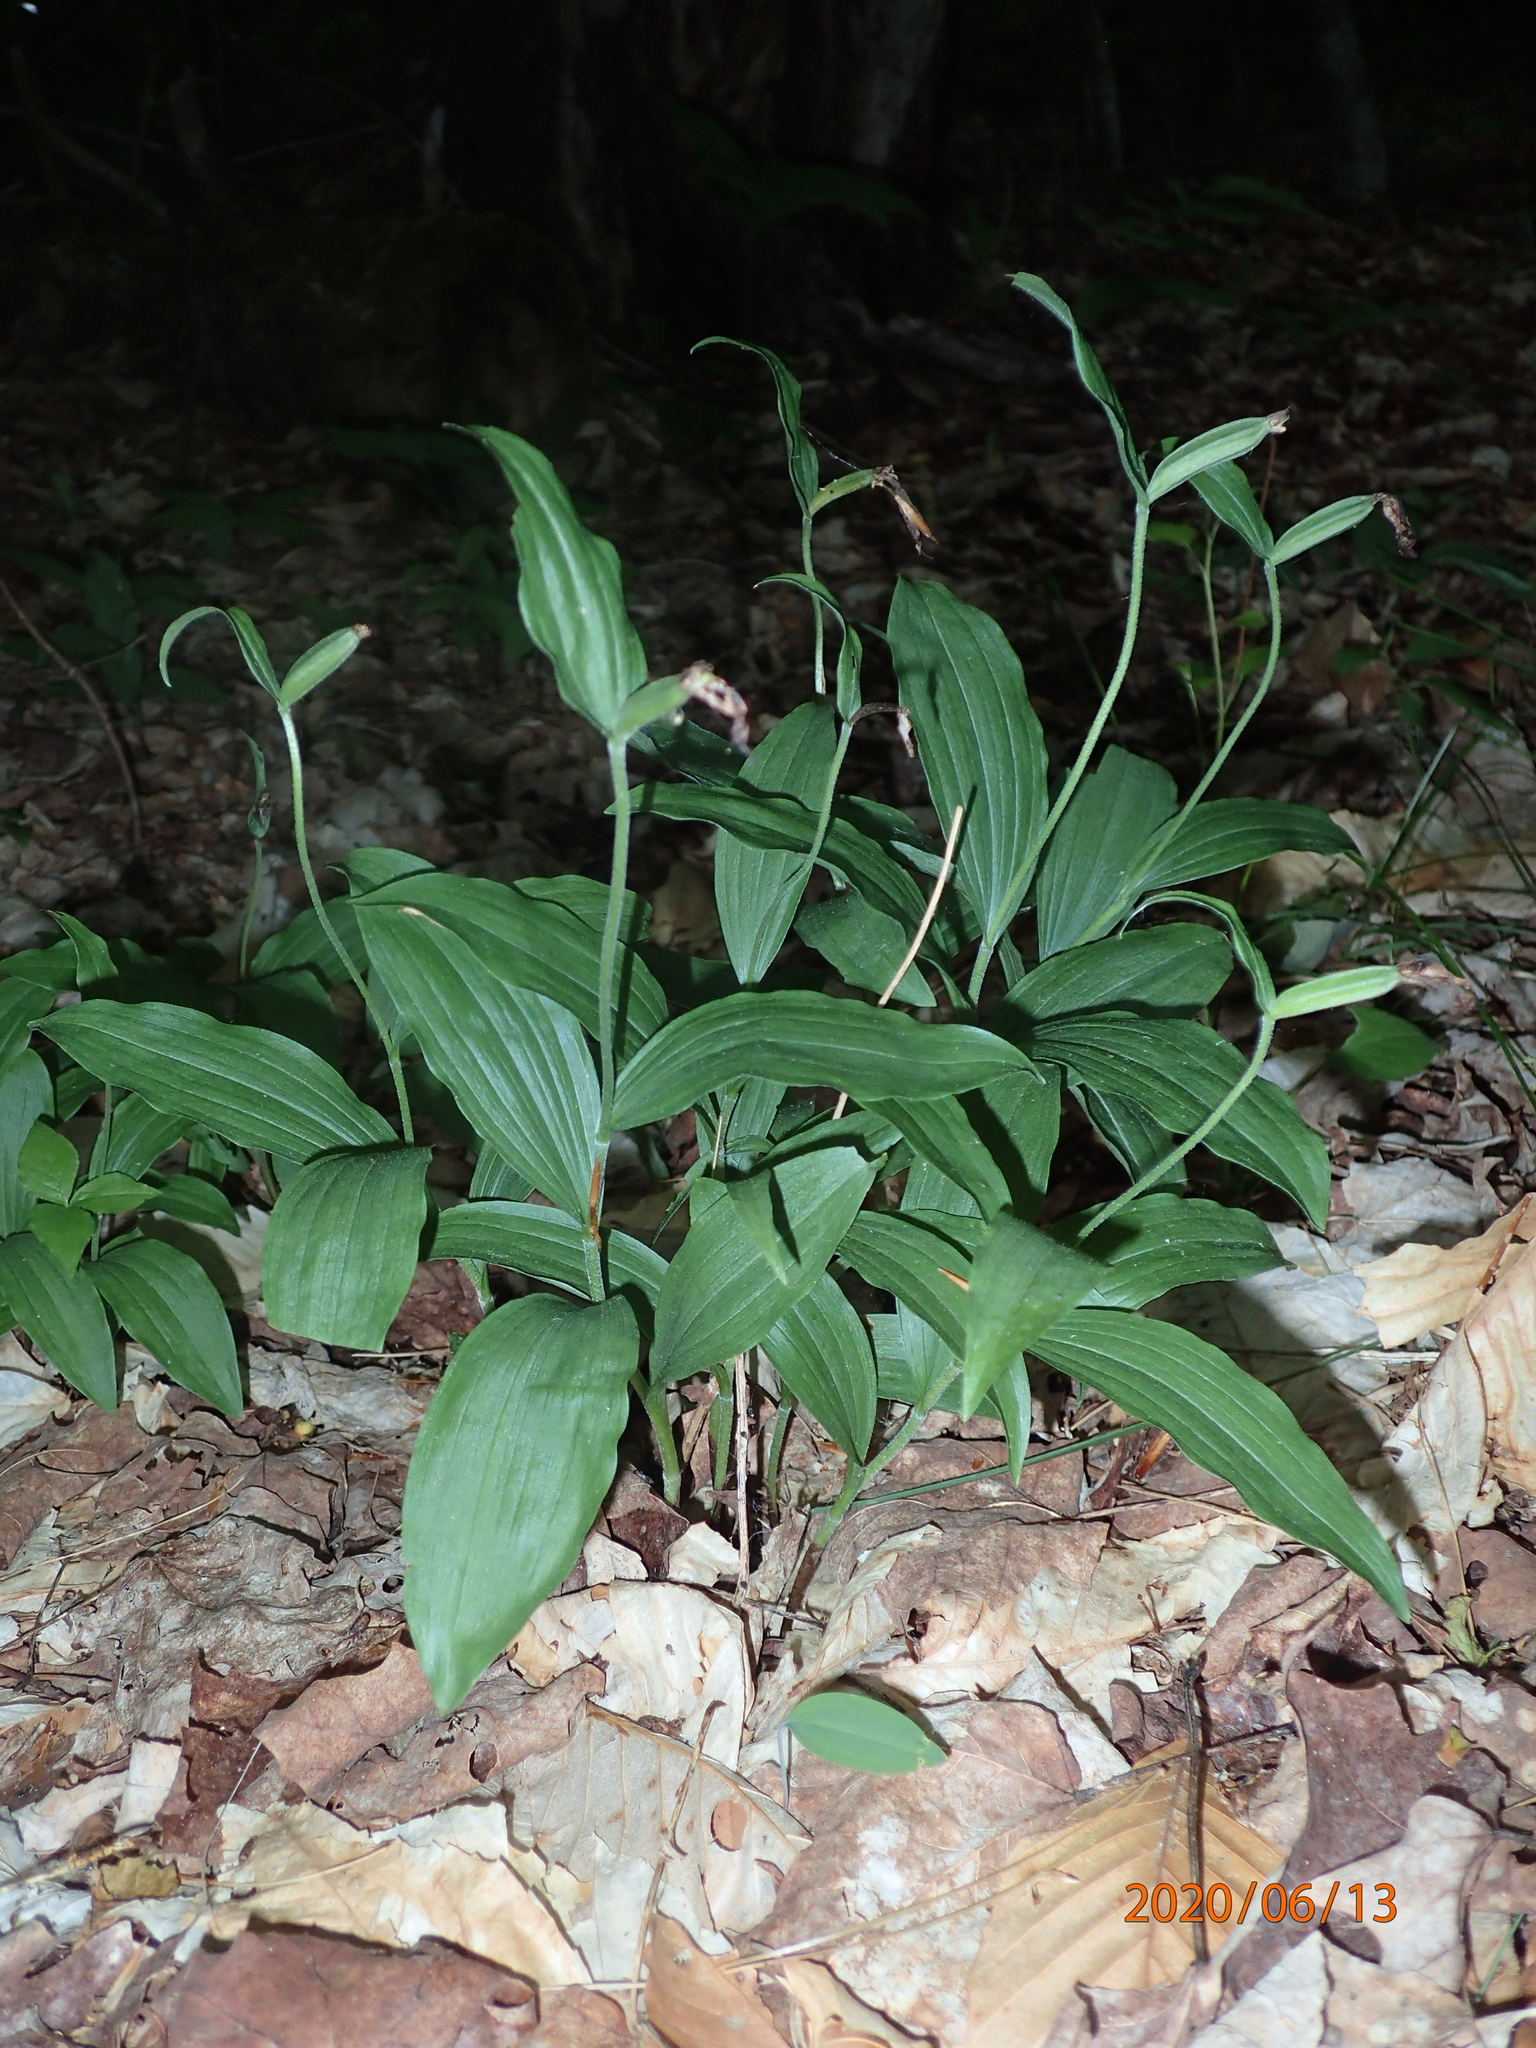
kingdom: Plantae
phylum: Tracheophyta
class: Liliopsida
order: Asparagales
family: Orchidaceae
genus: Cypripedium
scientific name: Cypripedium arietinum
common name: Ram's-head
